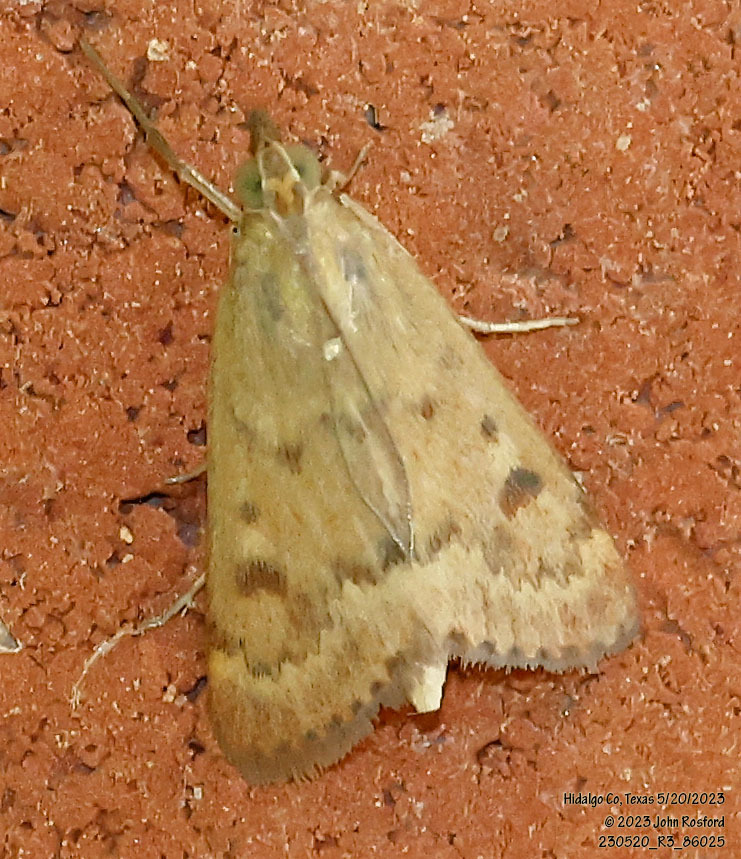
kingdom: Animalia
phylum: Arthropoda
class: Insecta
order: Lepidoptera
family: Crambidae
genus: Achyra
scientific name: Achyra rantalis
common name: Garden webworm
